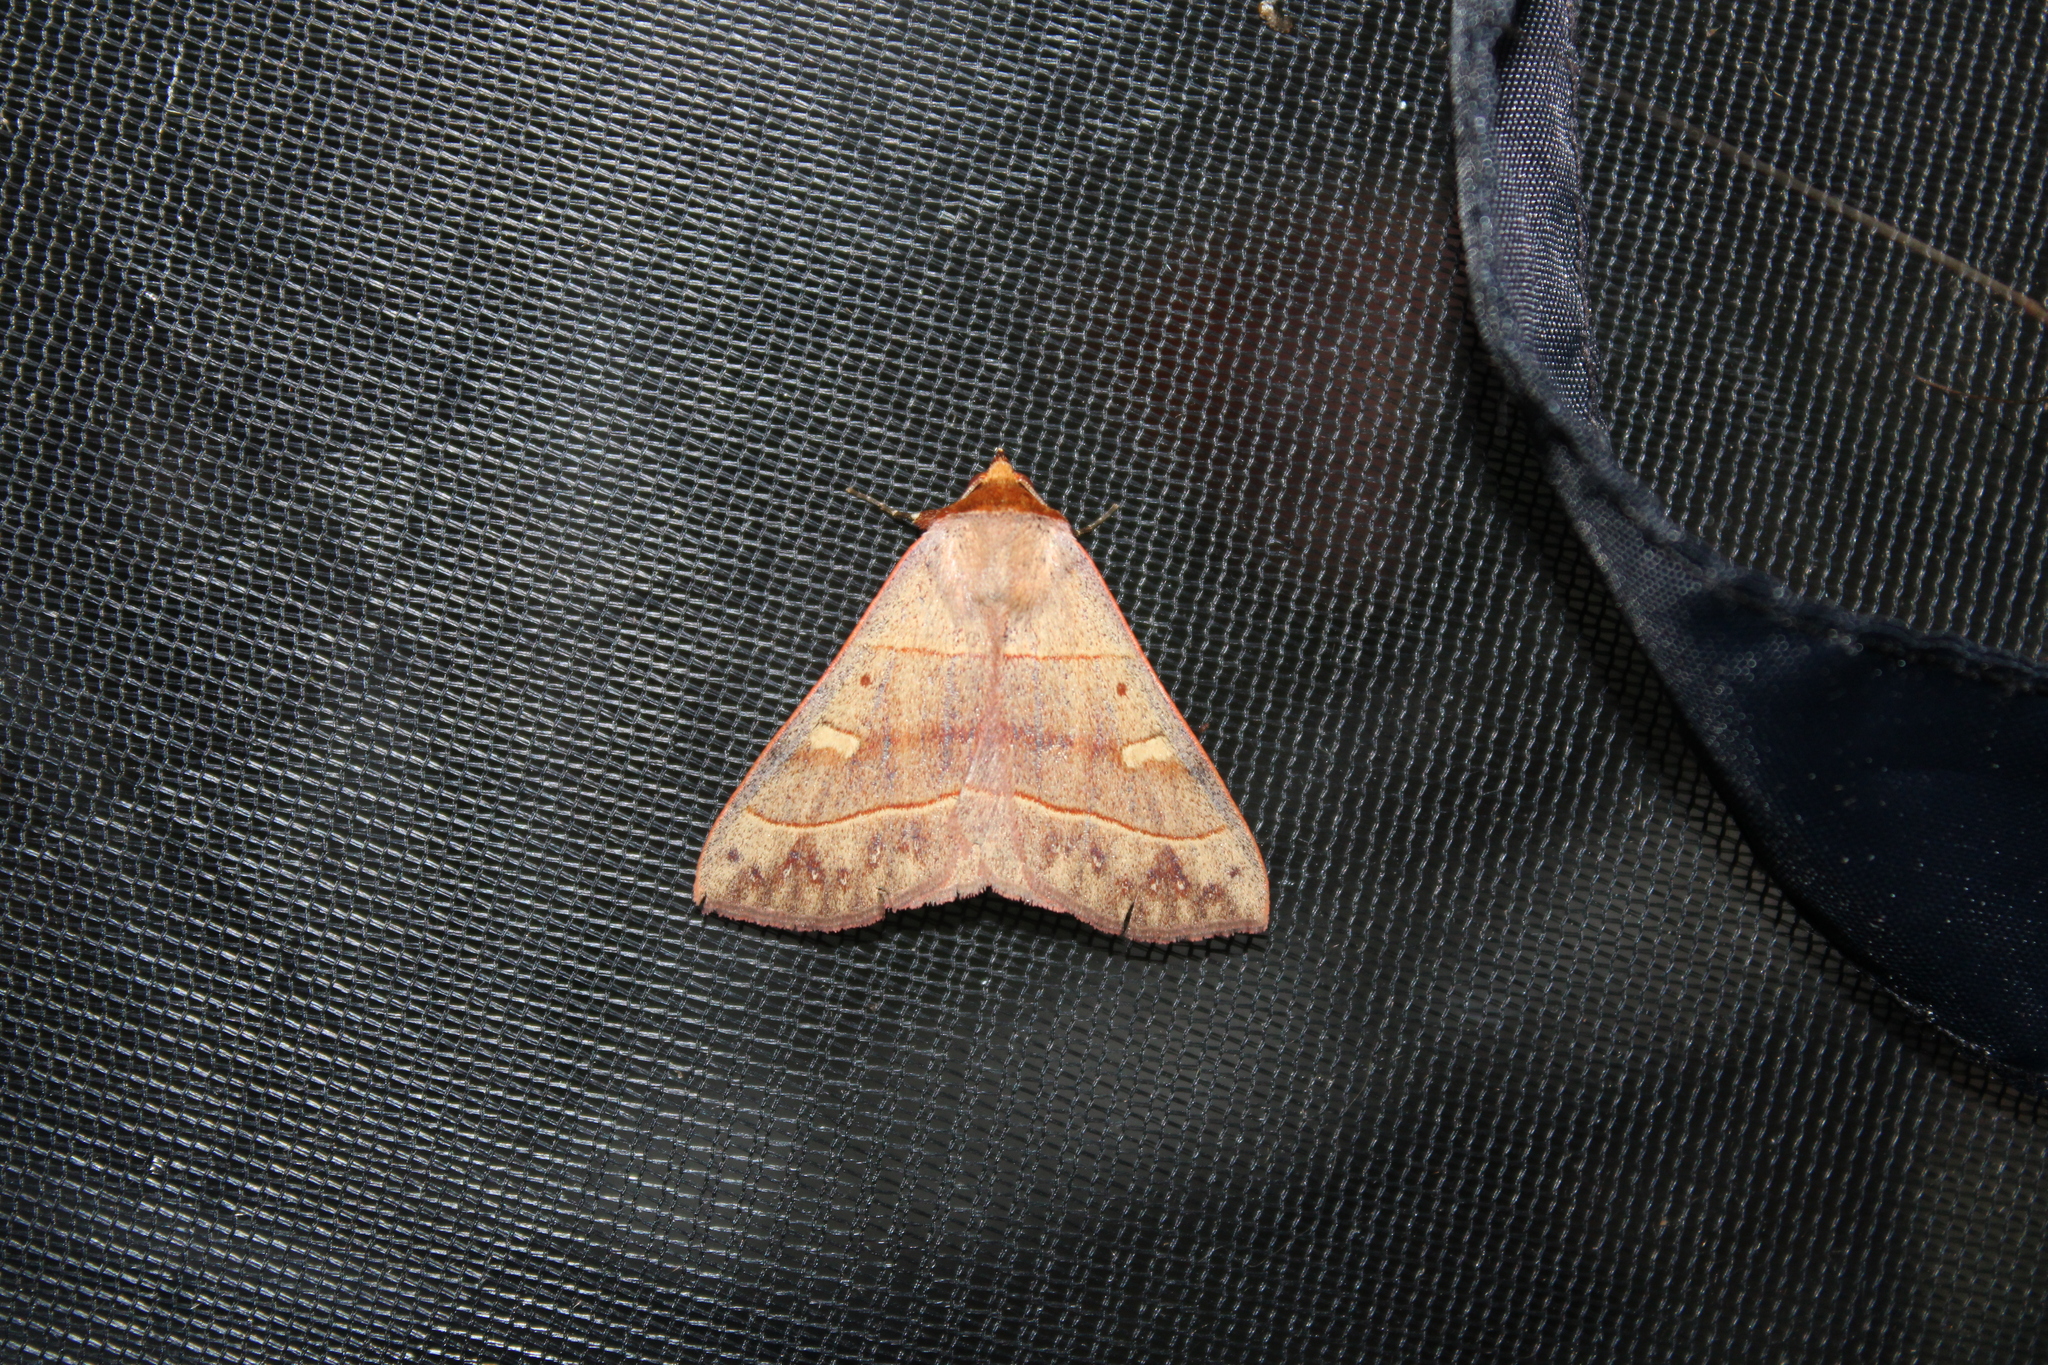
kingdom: Animalia
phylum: Arthropoda
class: Insecta
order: Lepidoptera
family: Erebidae
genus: Panopoda
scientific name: Panopoda rufimargo
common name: Red-lined panopoda moth
